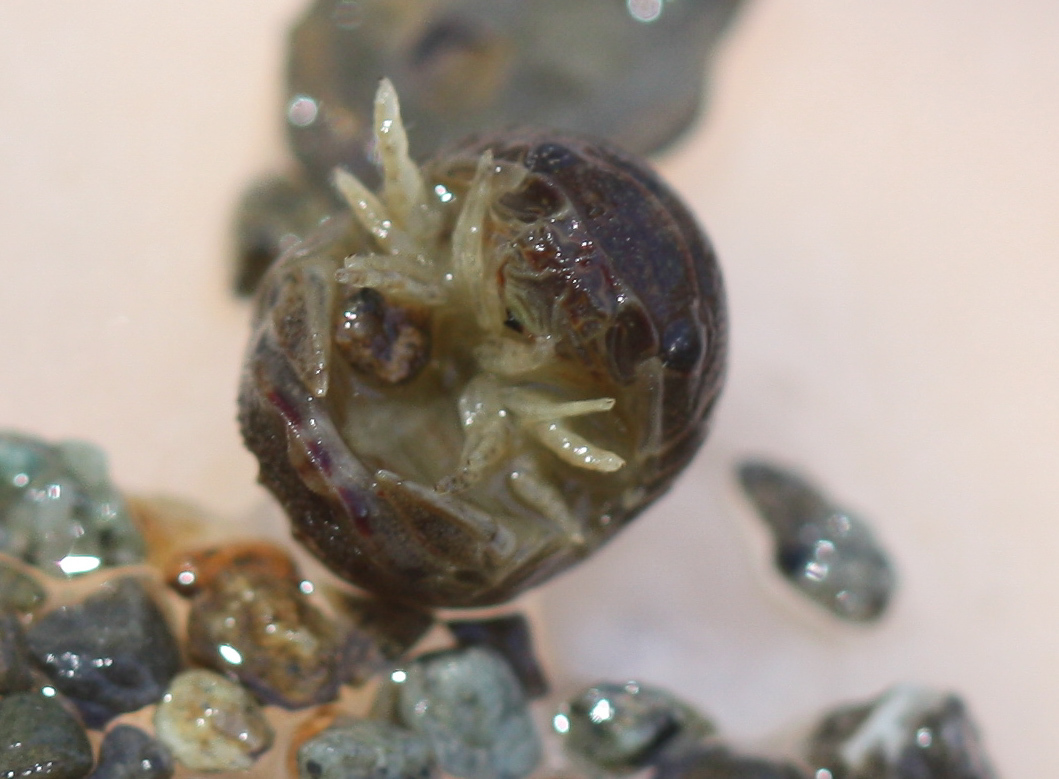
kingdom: Animalia
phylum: Arthropoda
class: Malacostraca
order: Isopoda
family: Sphaeromatidae
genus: Sphaeroma
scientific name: Sphaeroma quoianum
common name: Isopod
